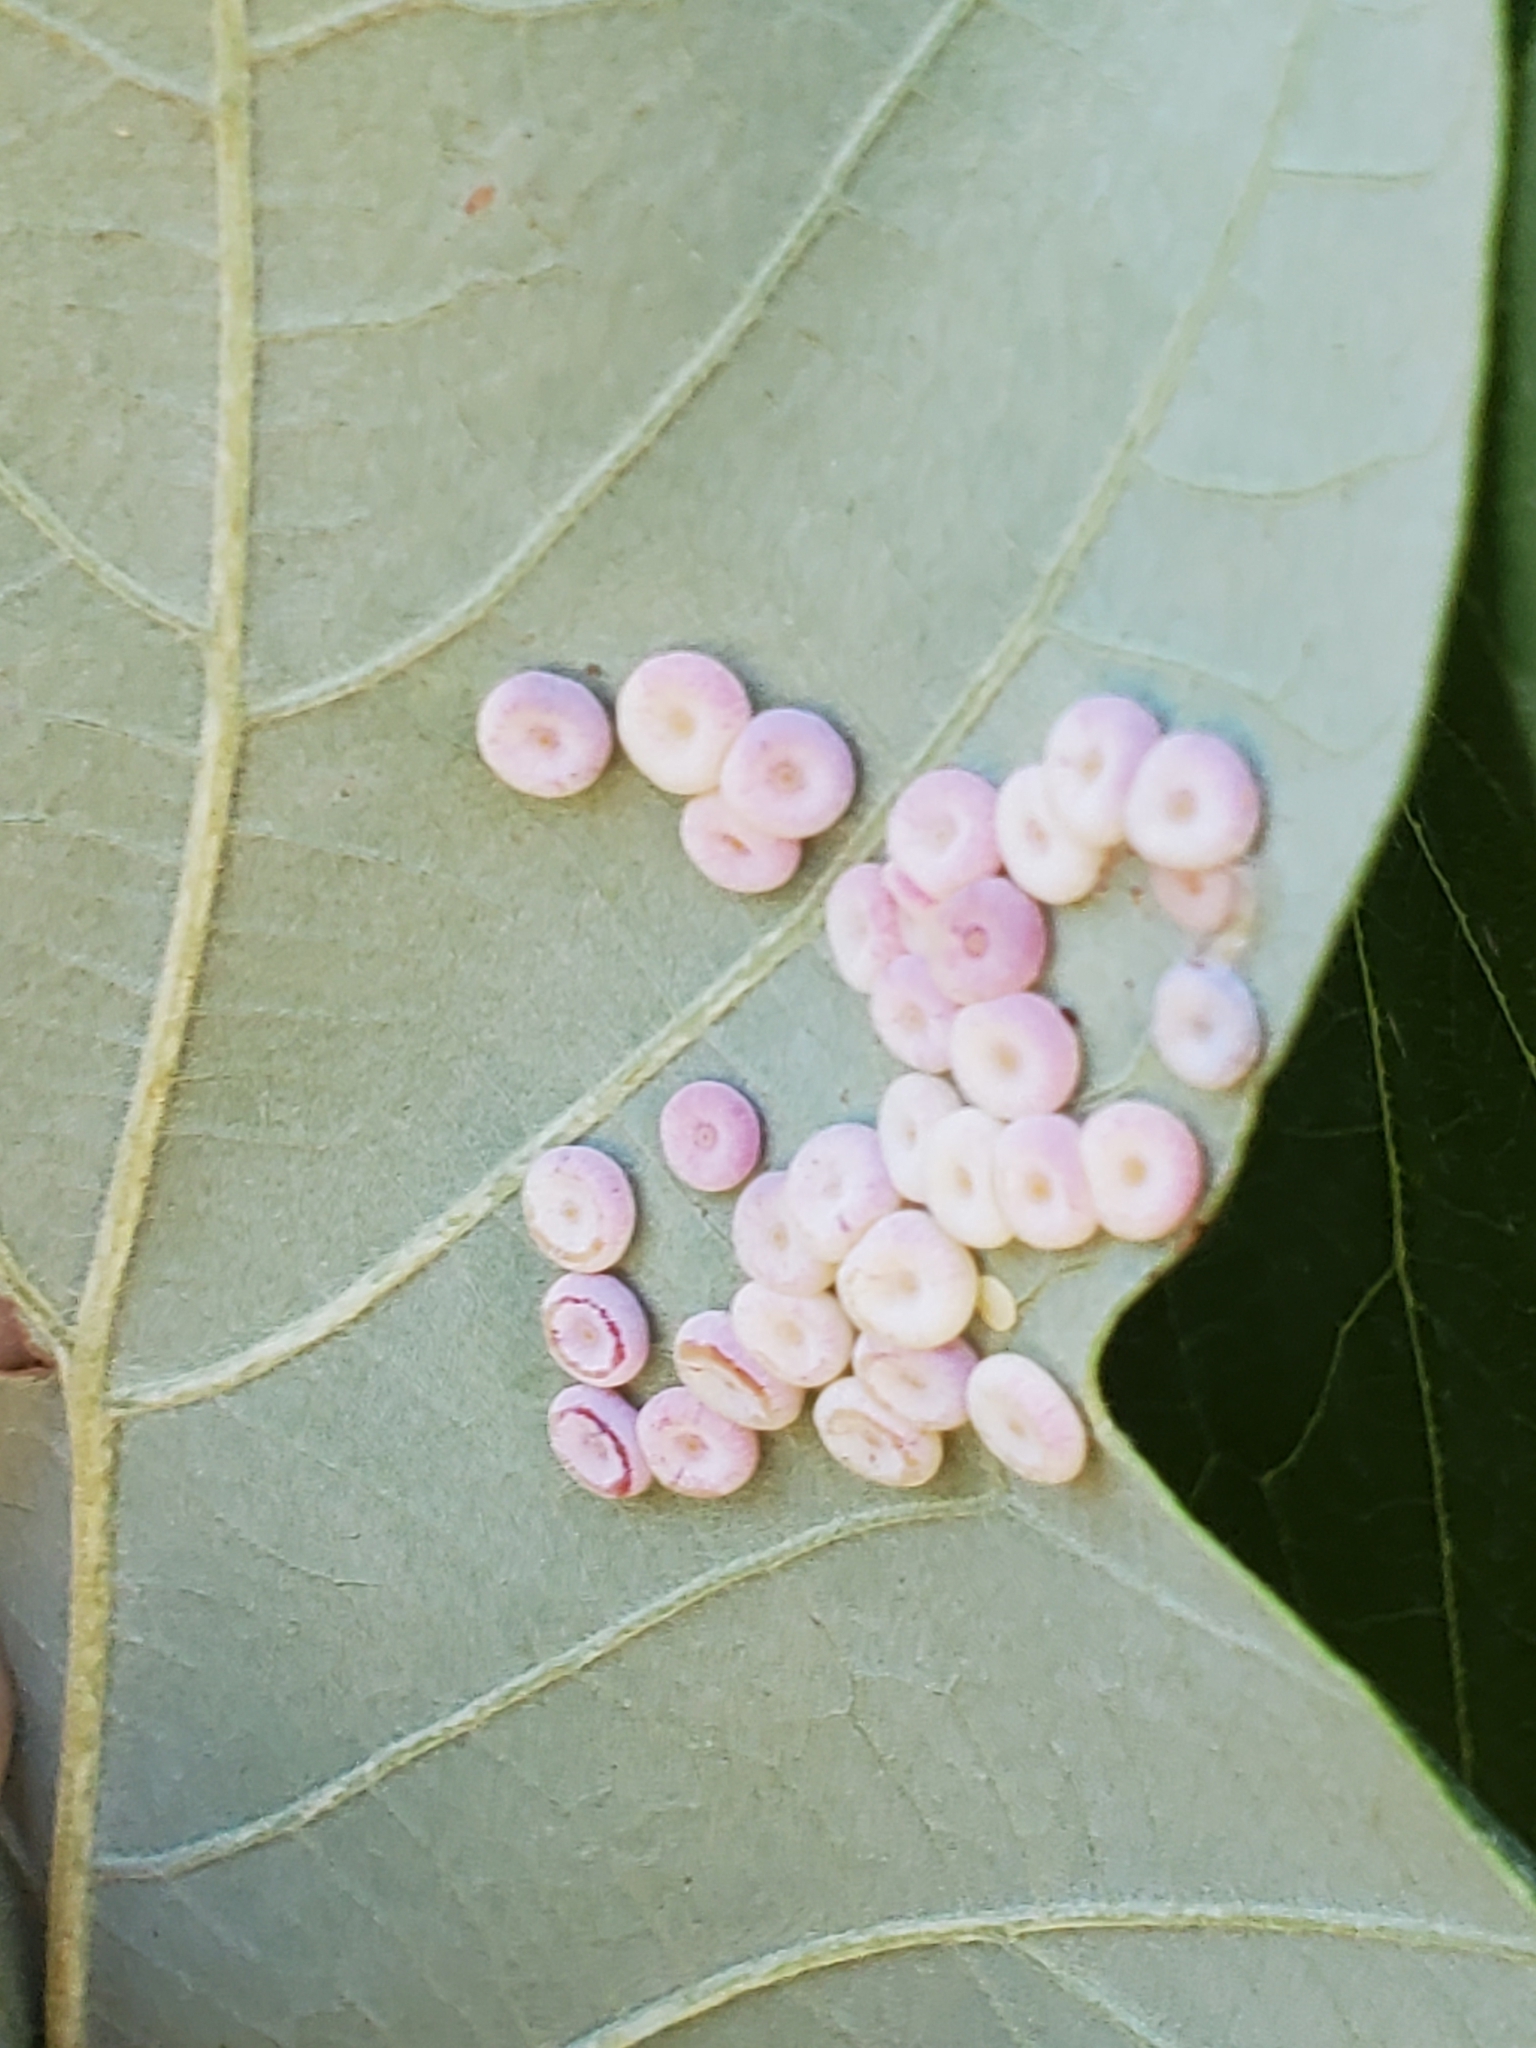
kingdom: Animalia
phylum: Arthropoda
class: Insecta
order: Hymenoptera
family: Cynipidae
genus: Phylloteras
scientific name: Phylloteras poculum
